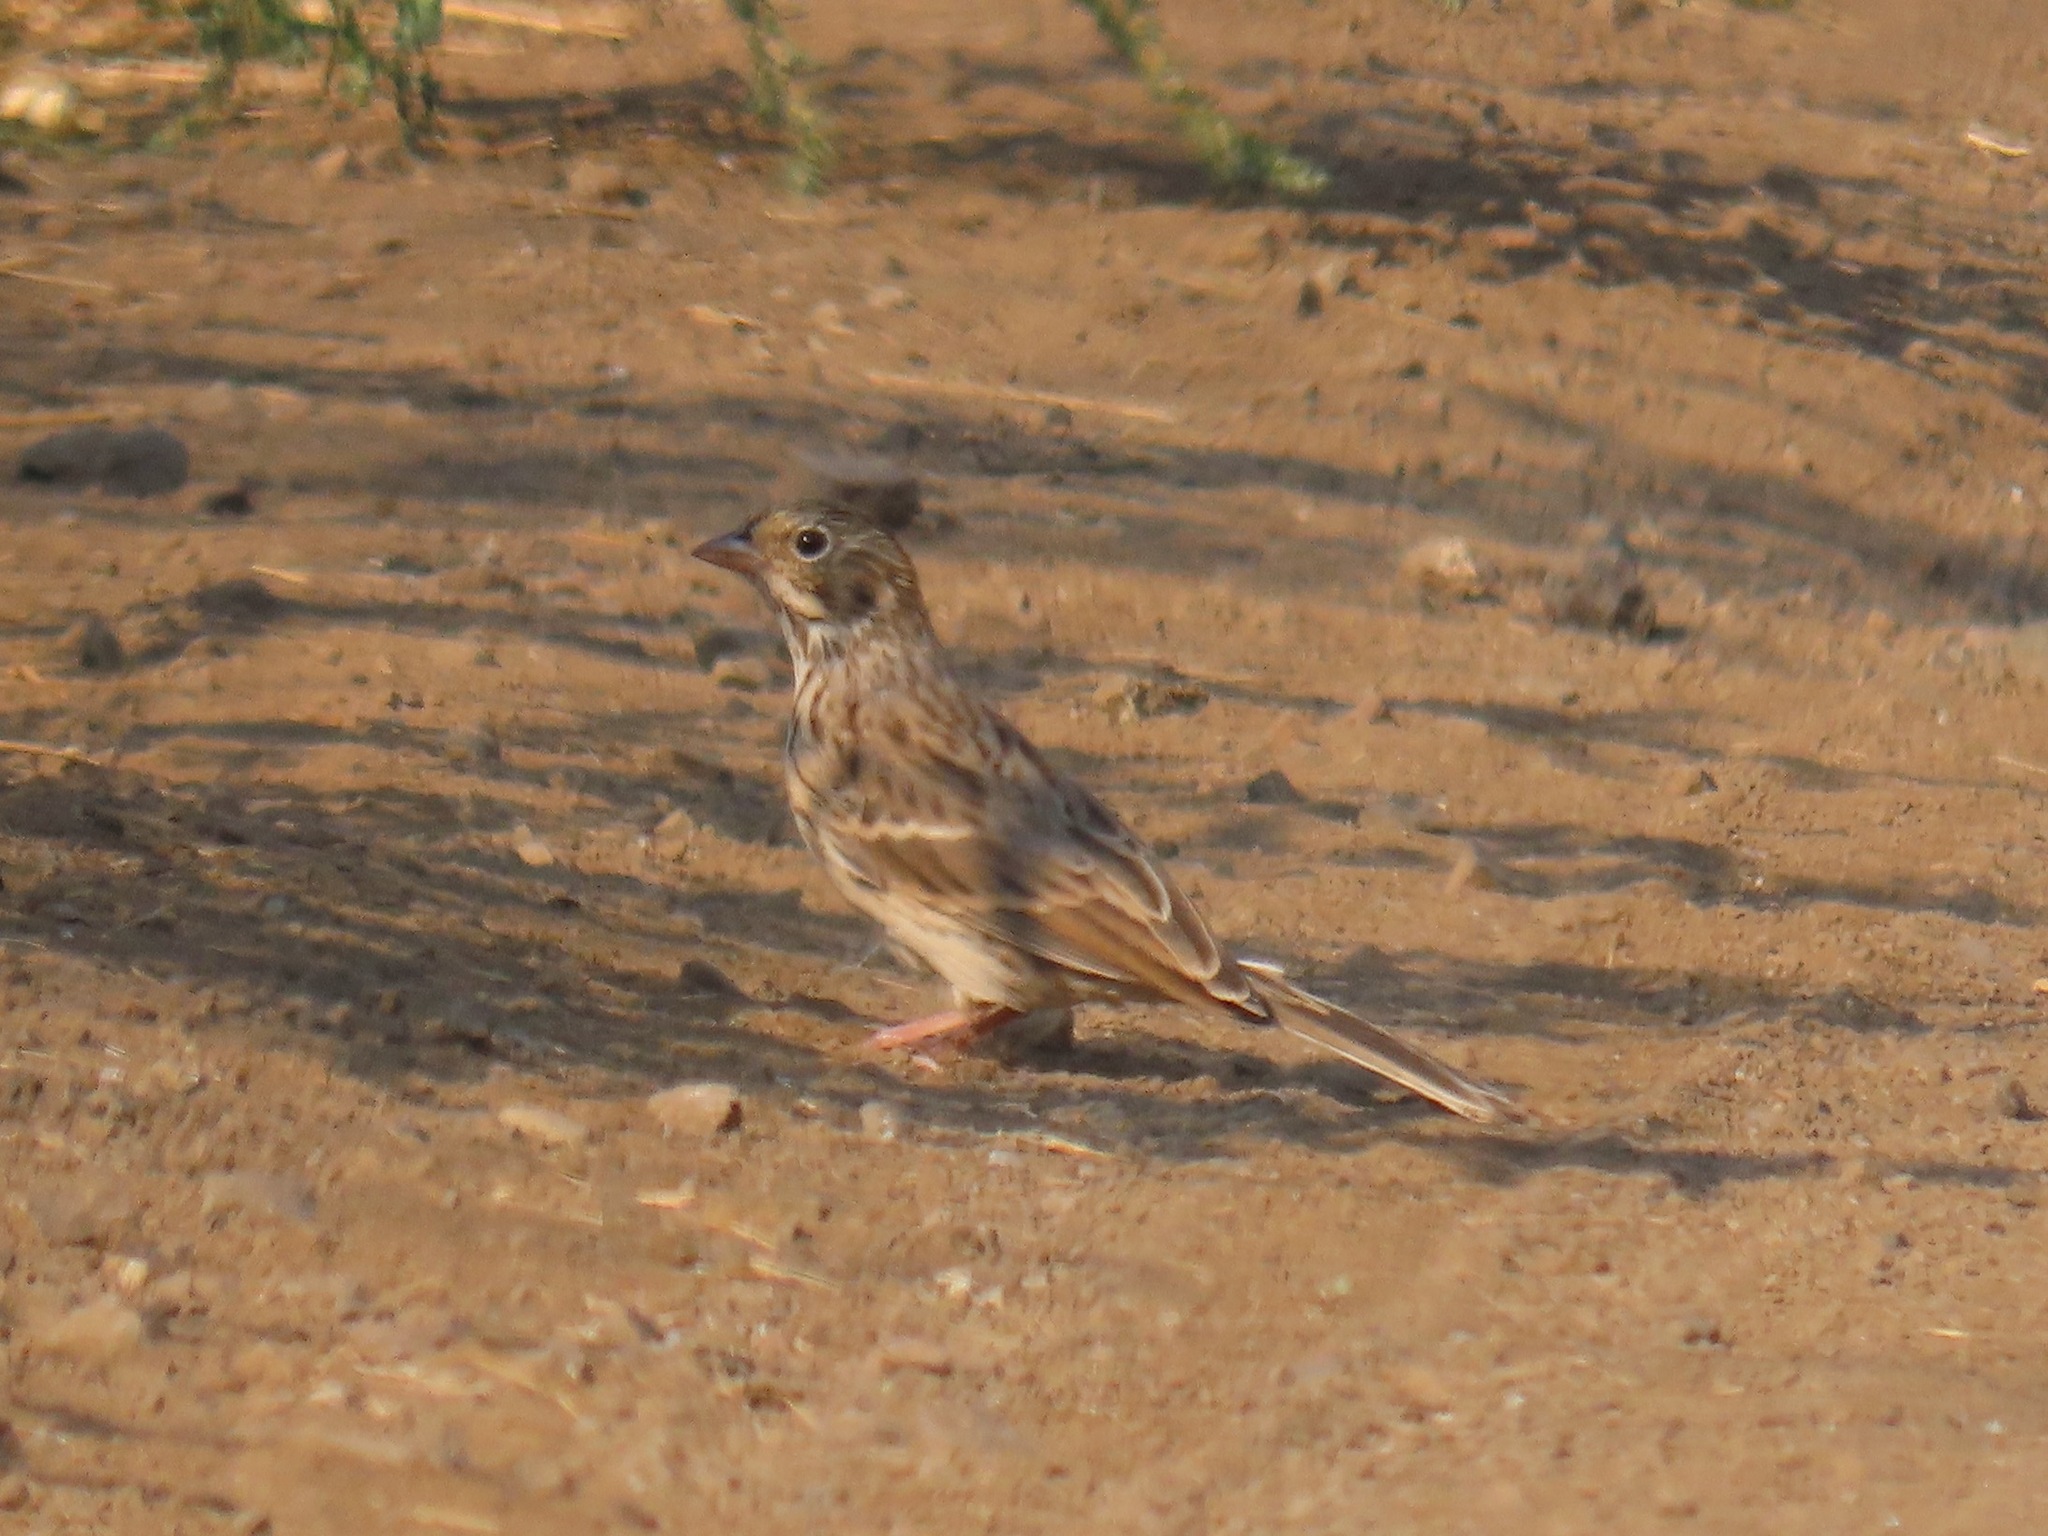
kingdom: Animalia
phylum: Chordata
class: Aves
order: Passeriformes
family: Passerellidae
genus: Pooecetes
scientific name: Pooecetes gramineus
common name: Vesper sparrow
